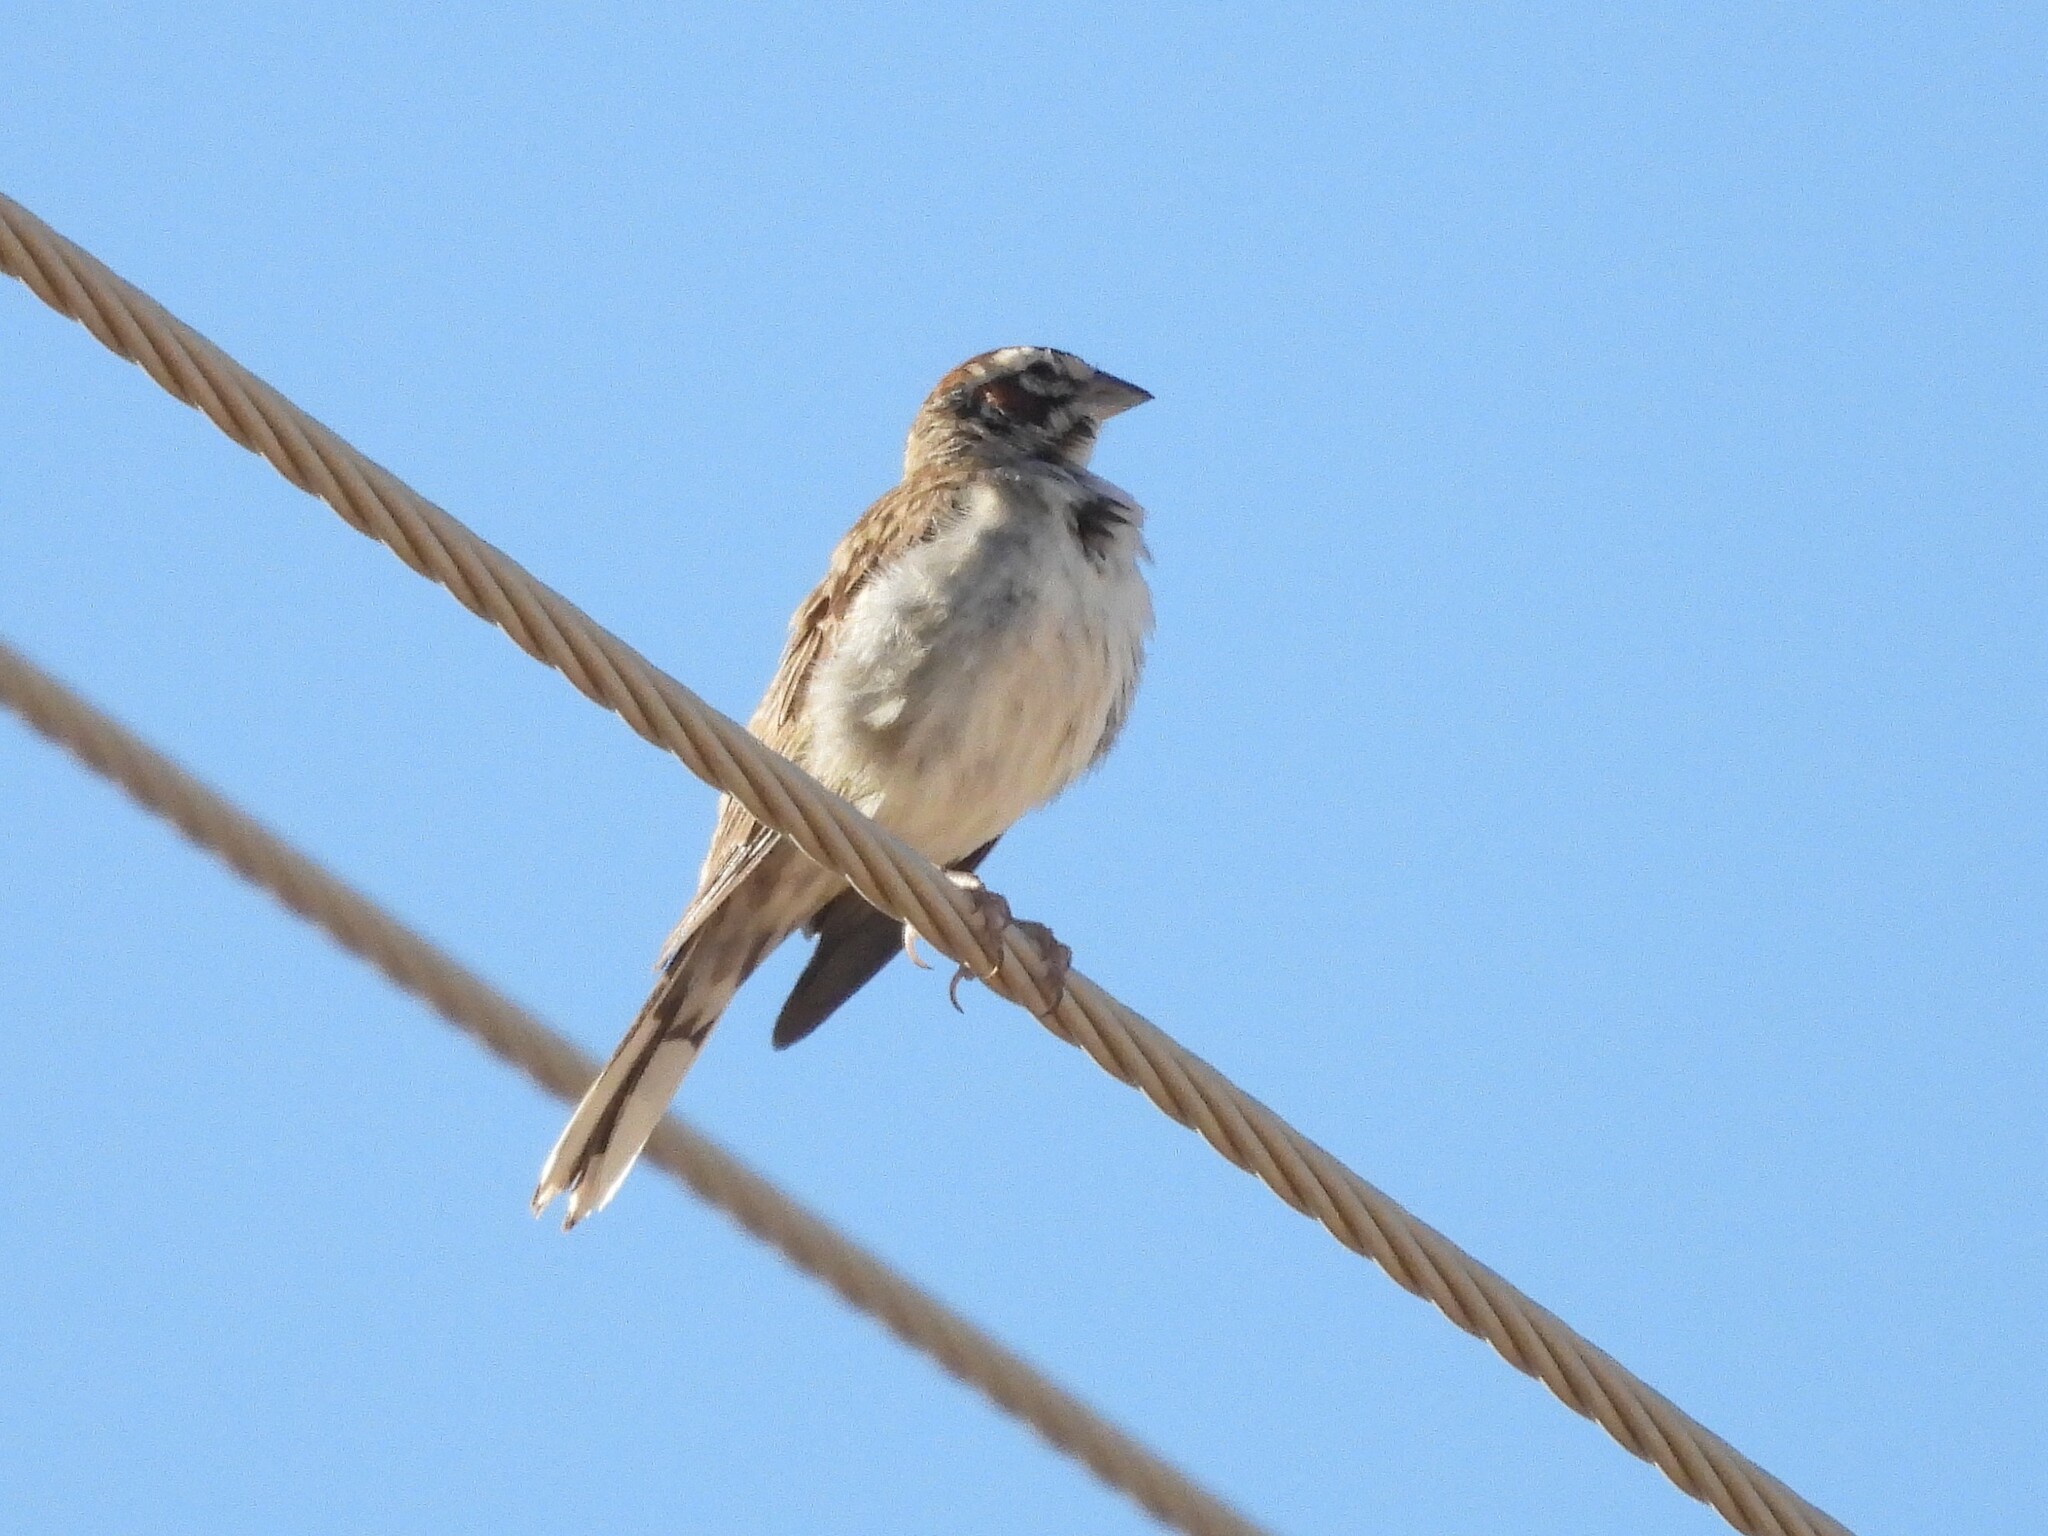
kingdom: Animalia
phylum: Chordata
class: Aves
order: Passeriformes
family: Passerellidae
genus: Chondestes
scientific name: Chondestes grammacus
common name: Lark sparrow
